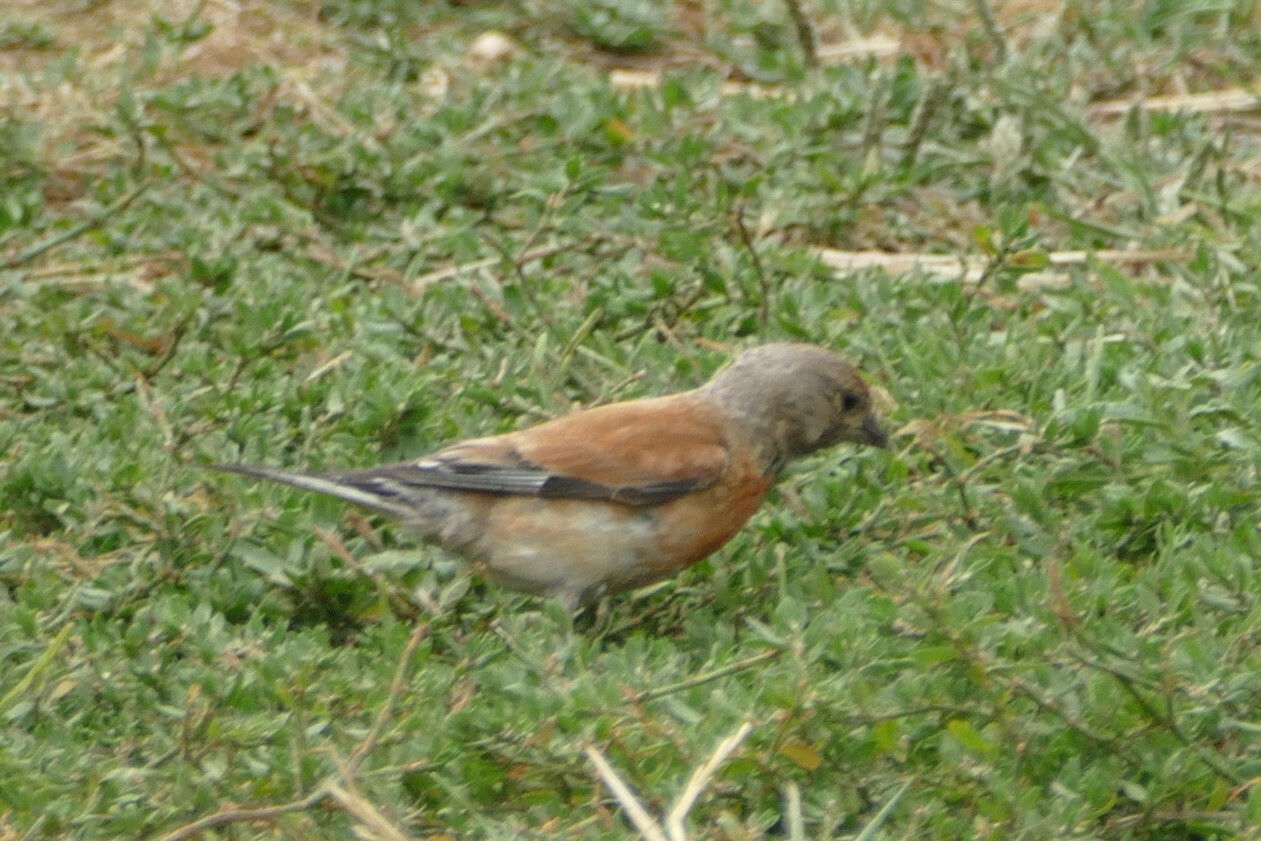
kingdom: Animalia
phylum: Chordata
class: Aves
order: Passeriformes
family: Fringillidae
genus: Linaria
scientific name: Linaria cannabina
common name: Common linnet
